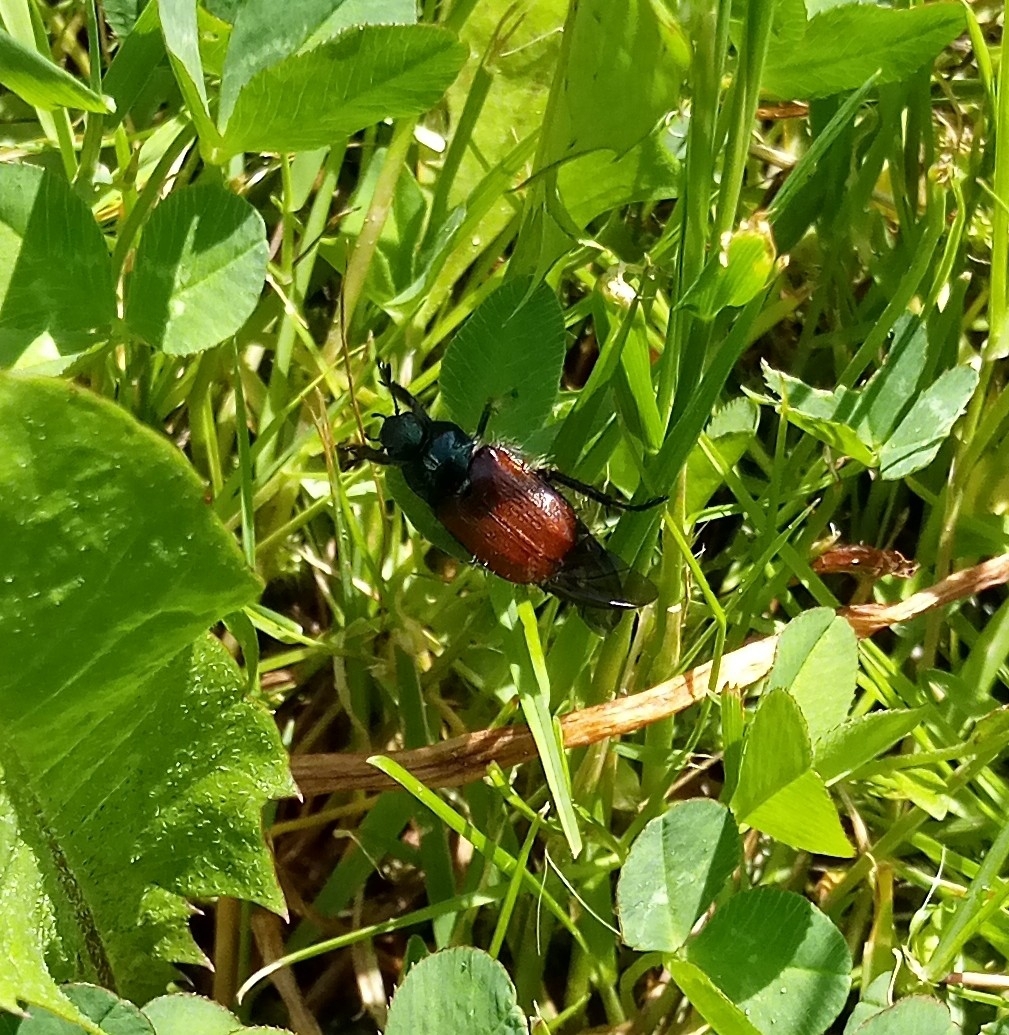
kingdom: Animalia
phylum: Arthropoda
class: Insecta
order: Coleoptera
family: Scarabaeidae
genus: Phyllopertha
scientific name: Phyllopertha horticola
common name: Garden chafer
